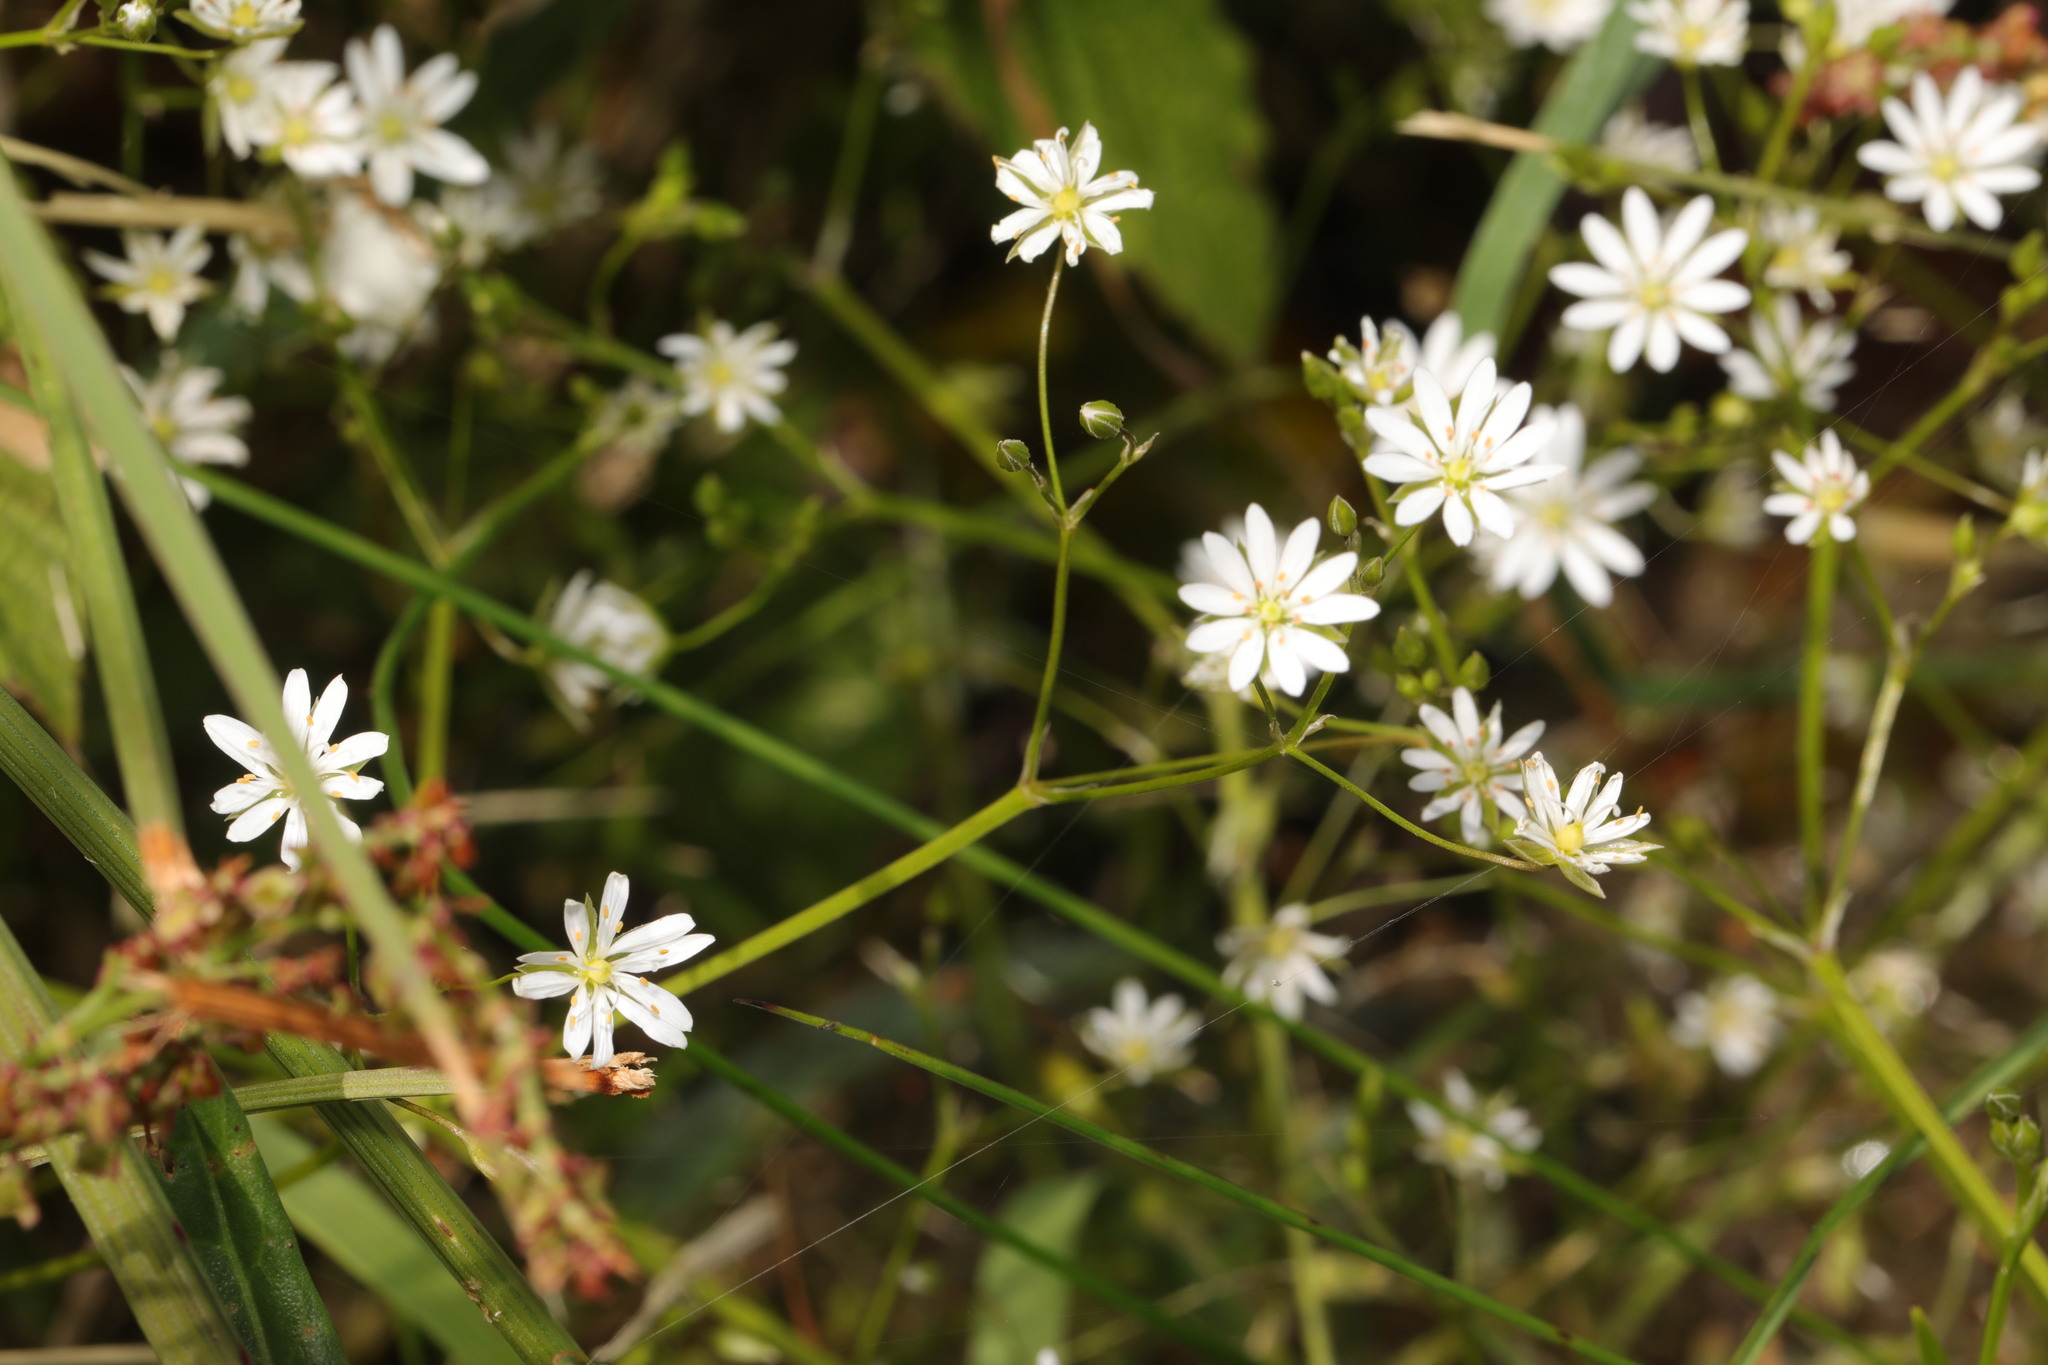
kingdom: Plantae
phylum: Tracheophyta
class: Magnoliopsida
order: Caryophyllales
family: Caryophyllaceae
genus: Stellaria
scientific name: Stellaria graminea
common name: Grass-like starwort
